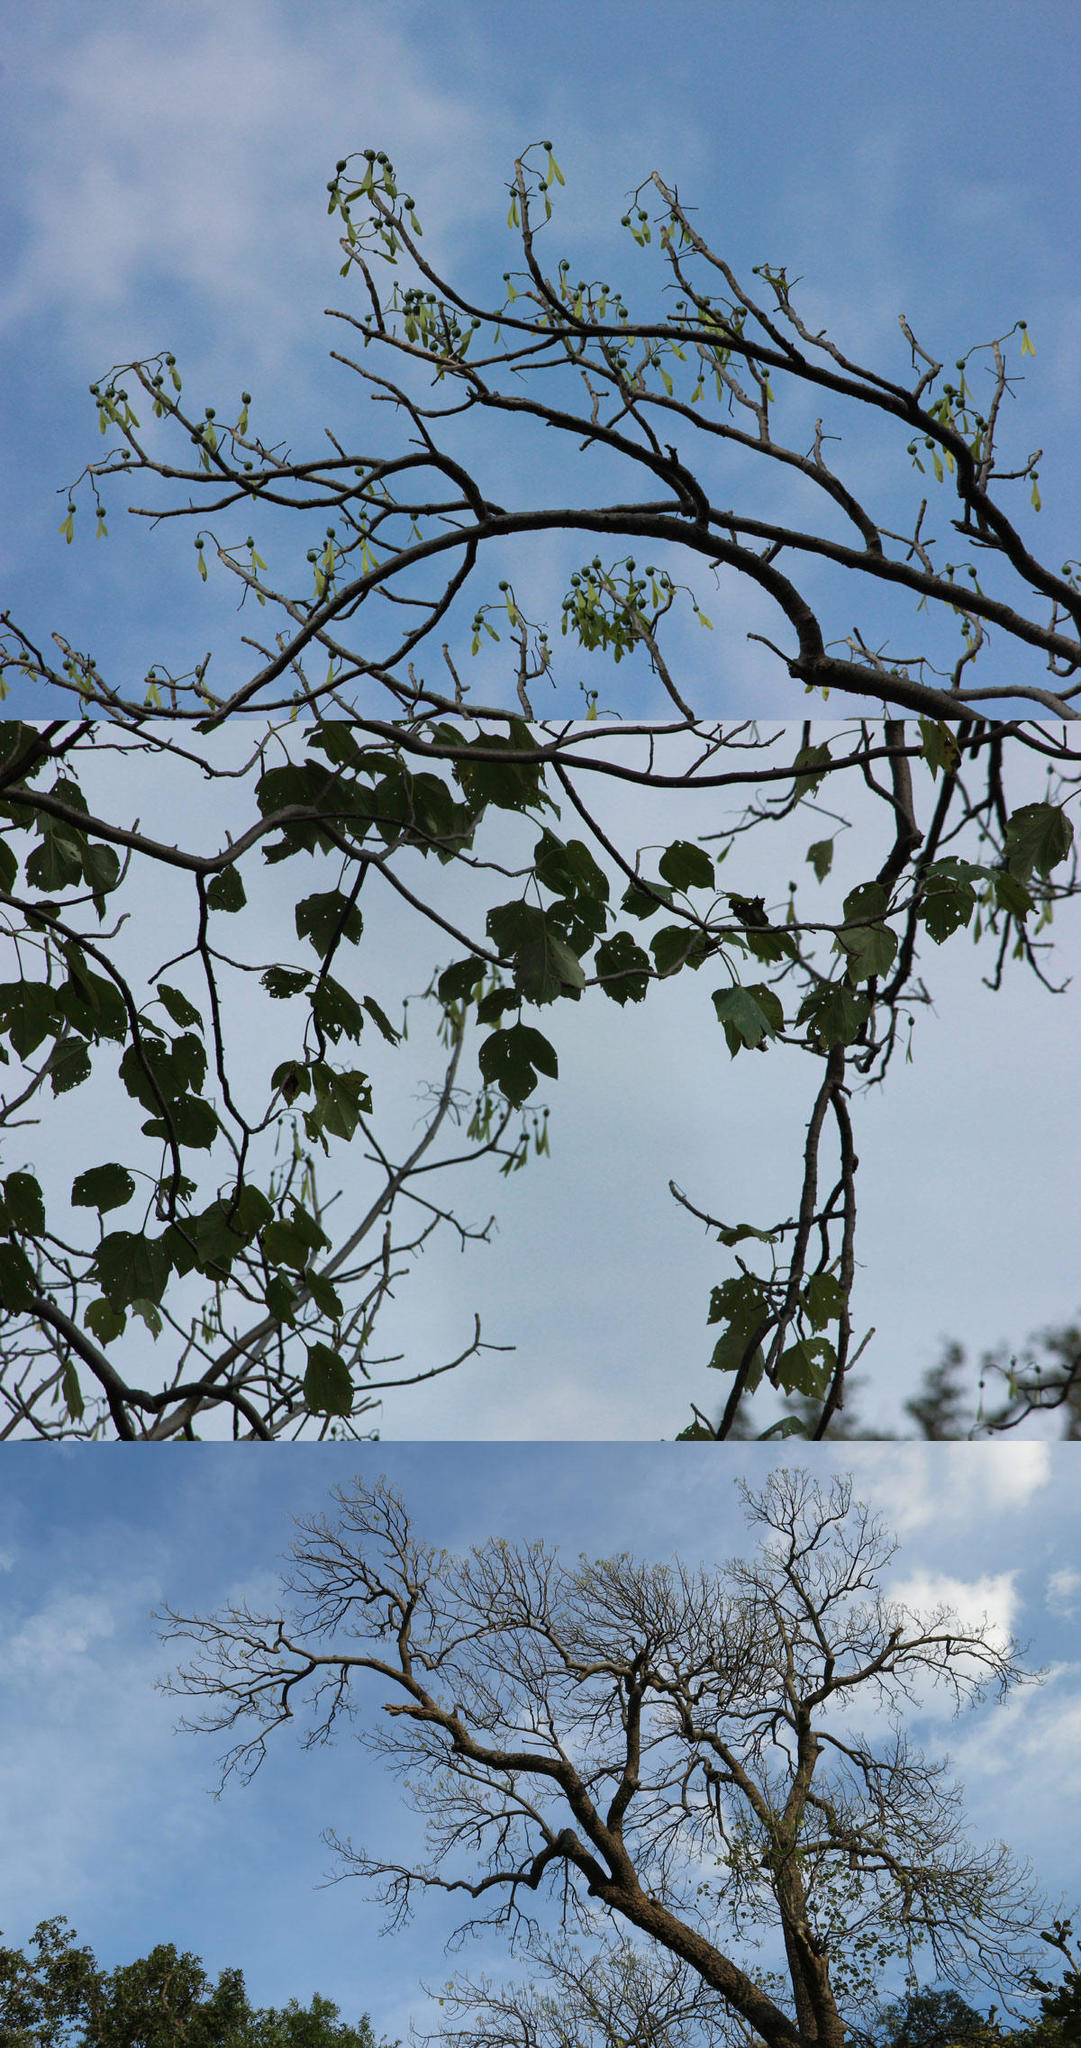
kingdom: Plantae
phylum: Tracheophyta
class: Magnoliopsida
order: Laurales
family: Hernandiaceae
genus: Gyrocarpus
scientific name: Gyrocarpus americanus
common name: Gyro damson
